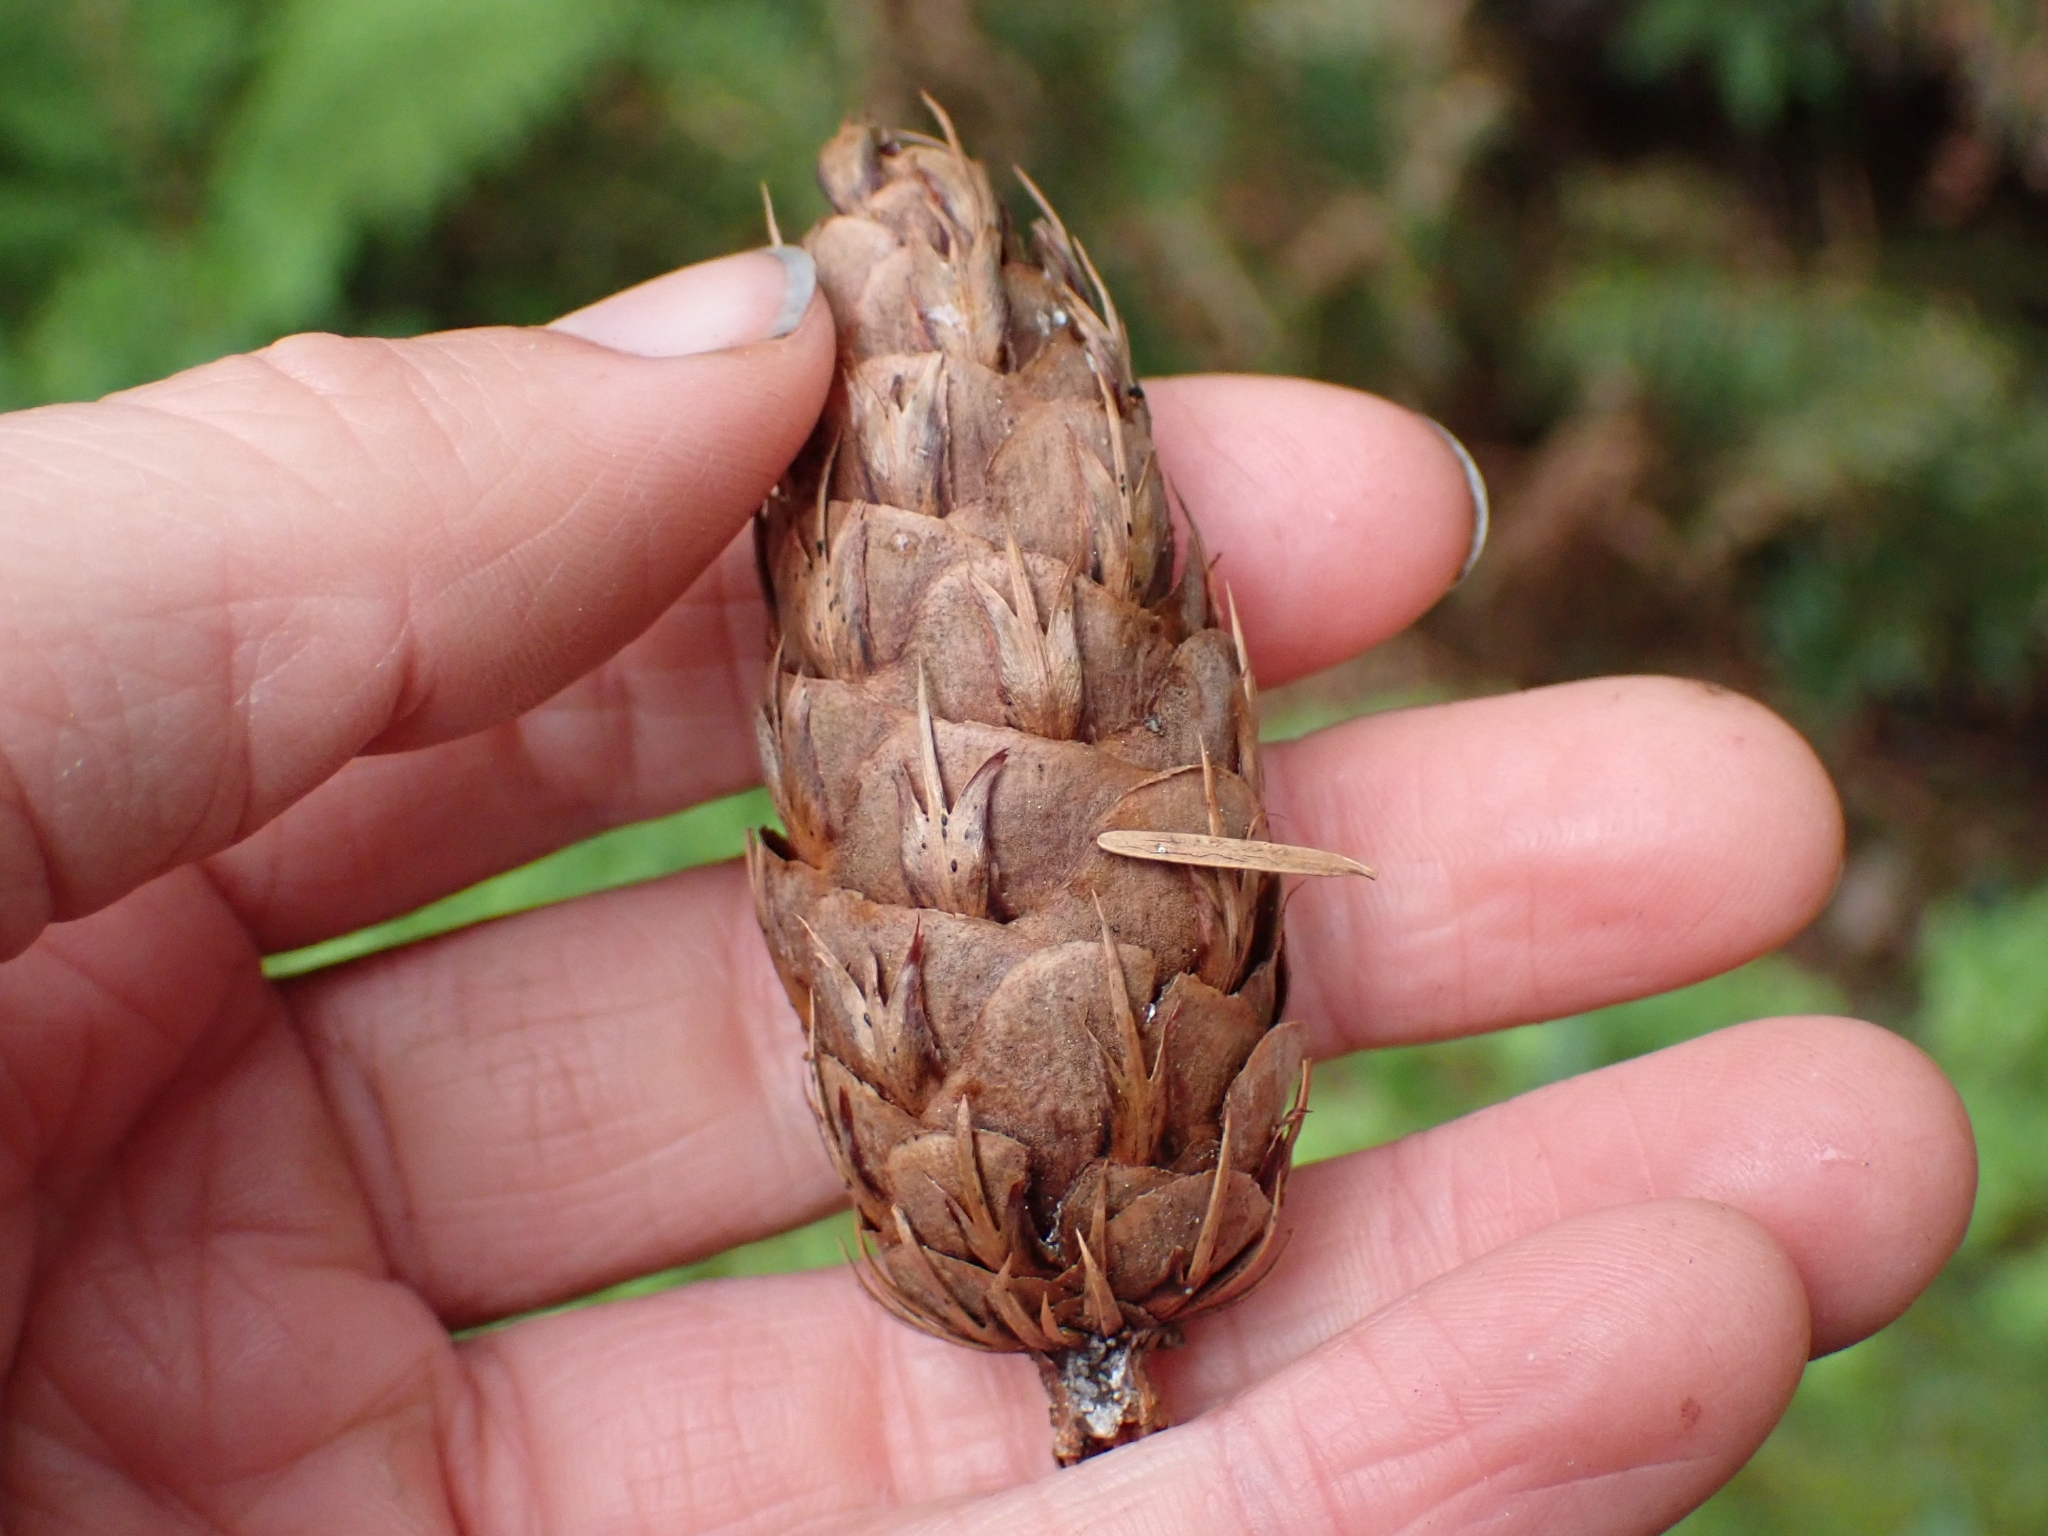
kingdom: Plantae
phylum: Tracheophyta
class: Pinopsida
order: Pinales
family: Pinaceae
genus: Pseudotsuga
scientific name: Pseudotsuga menziesii
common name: Douglas fir
